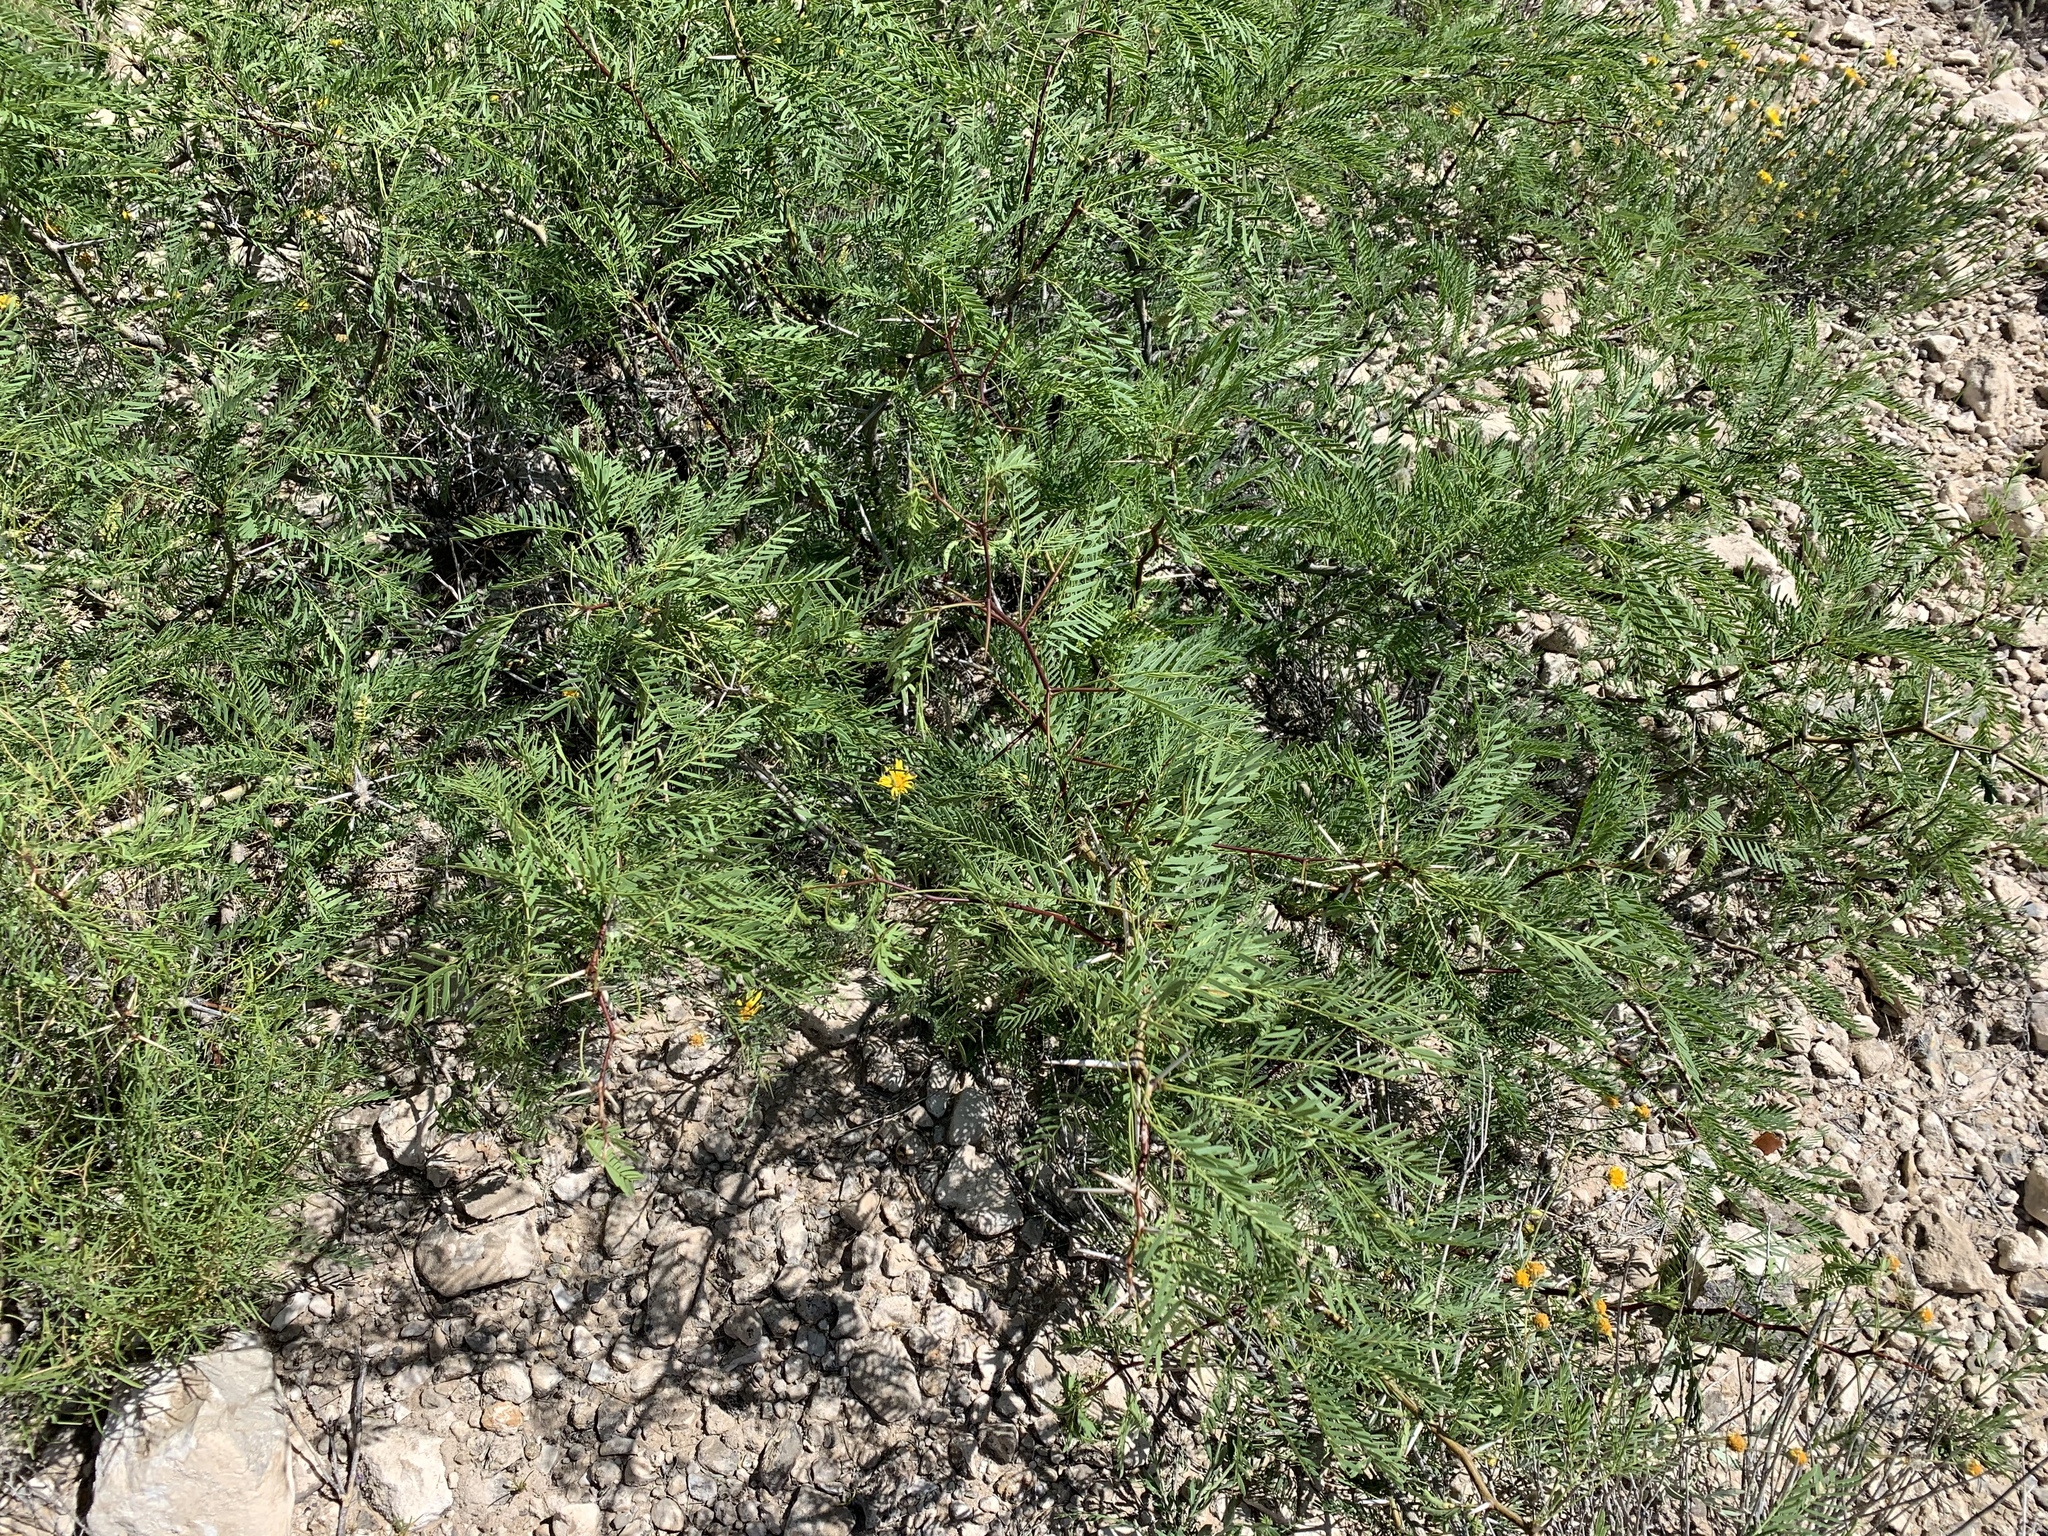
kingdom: Plantae
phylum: Tracheophyta
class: Magnoliopsida
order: Fabales
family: Fabaceae
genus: Prosopis
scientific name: Prosopis glandulosa
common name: Honey mesquite
